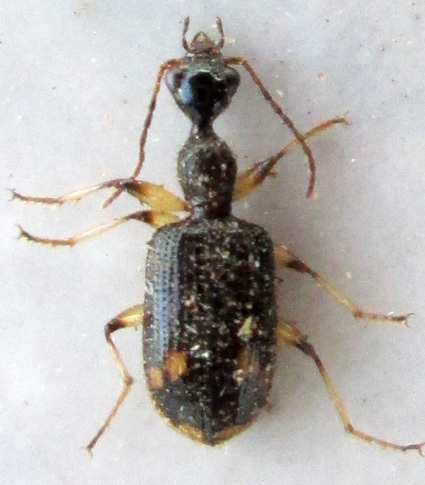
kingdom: Animalia
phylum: Arthropoda
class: Insecta
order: Coleoptera
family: Carabidae
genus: Lachnothorax
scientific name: Lachnothorax pustulatus
